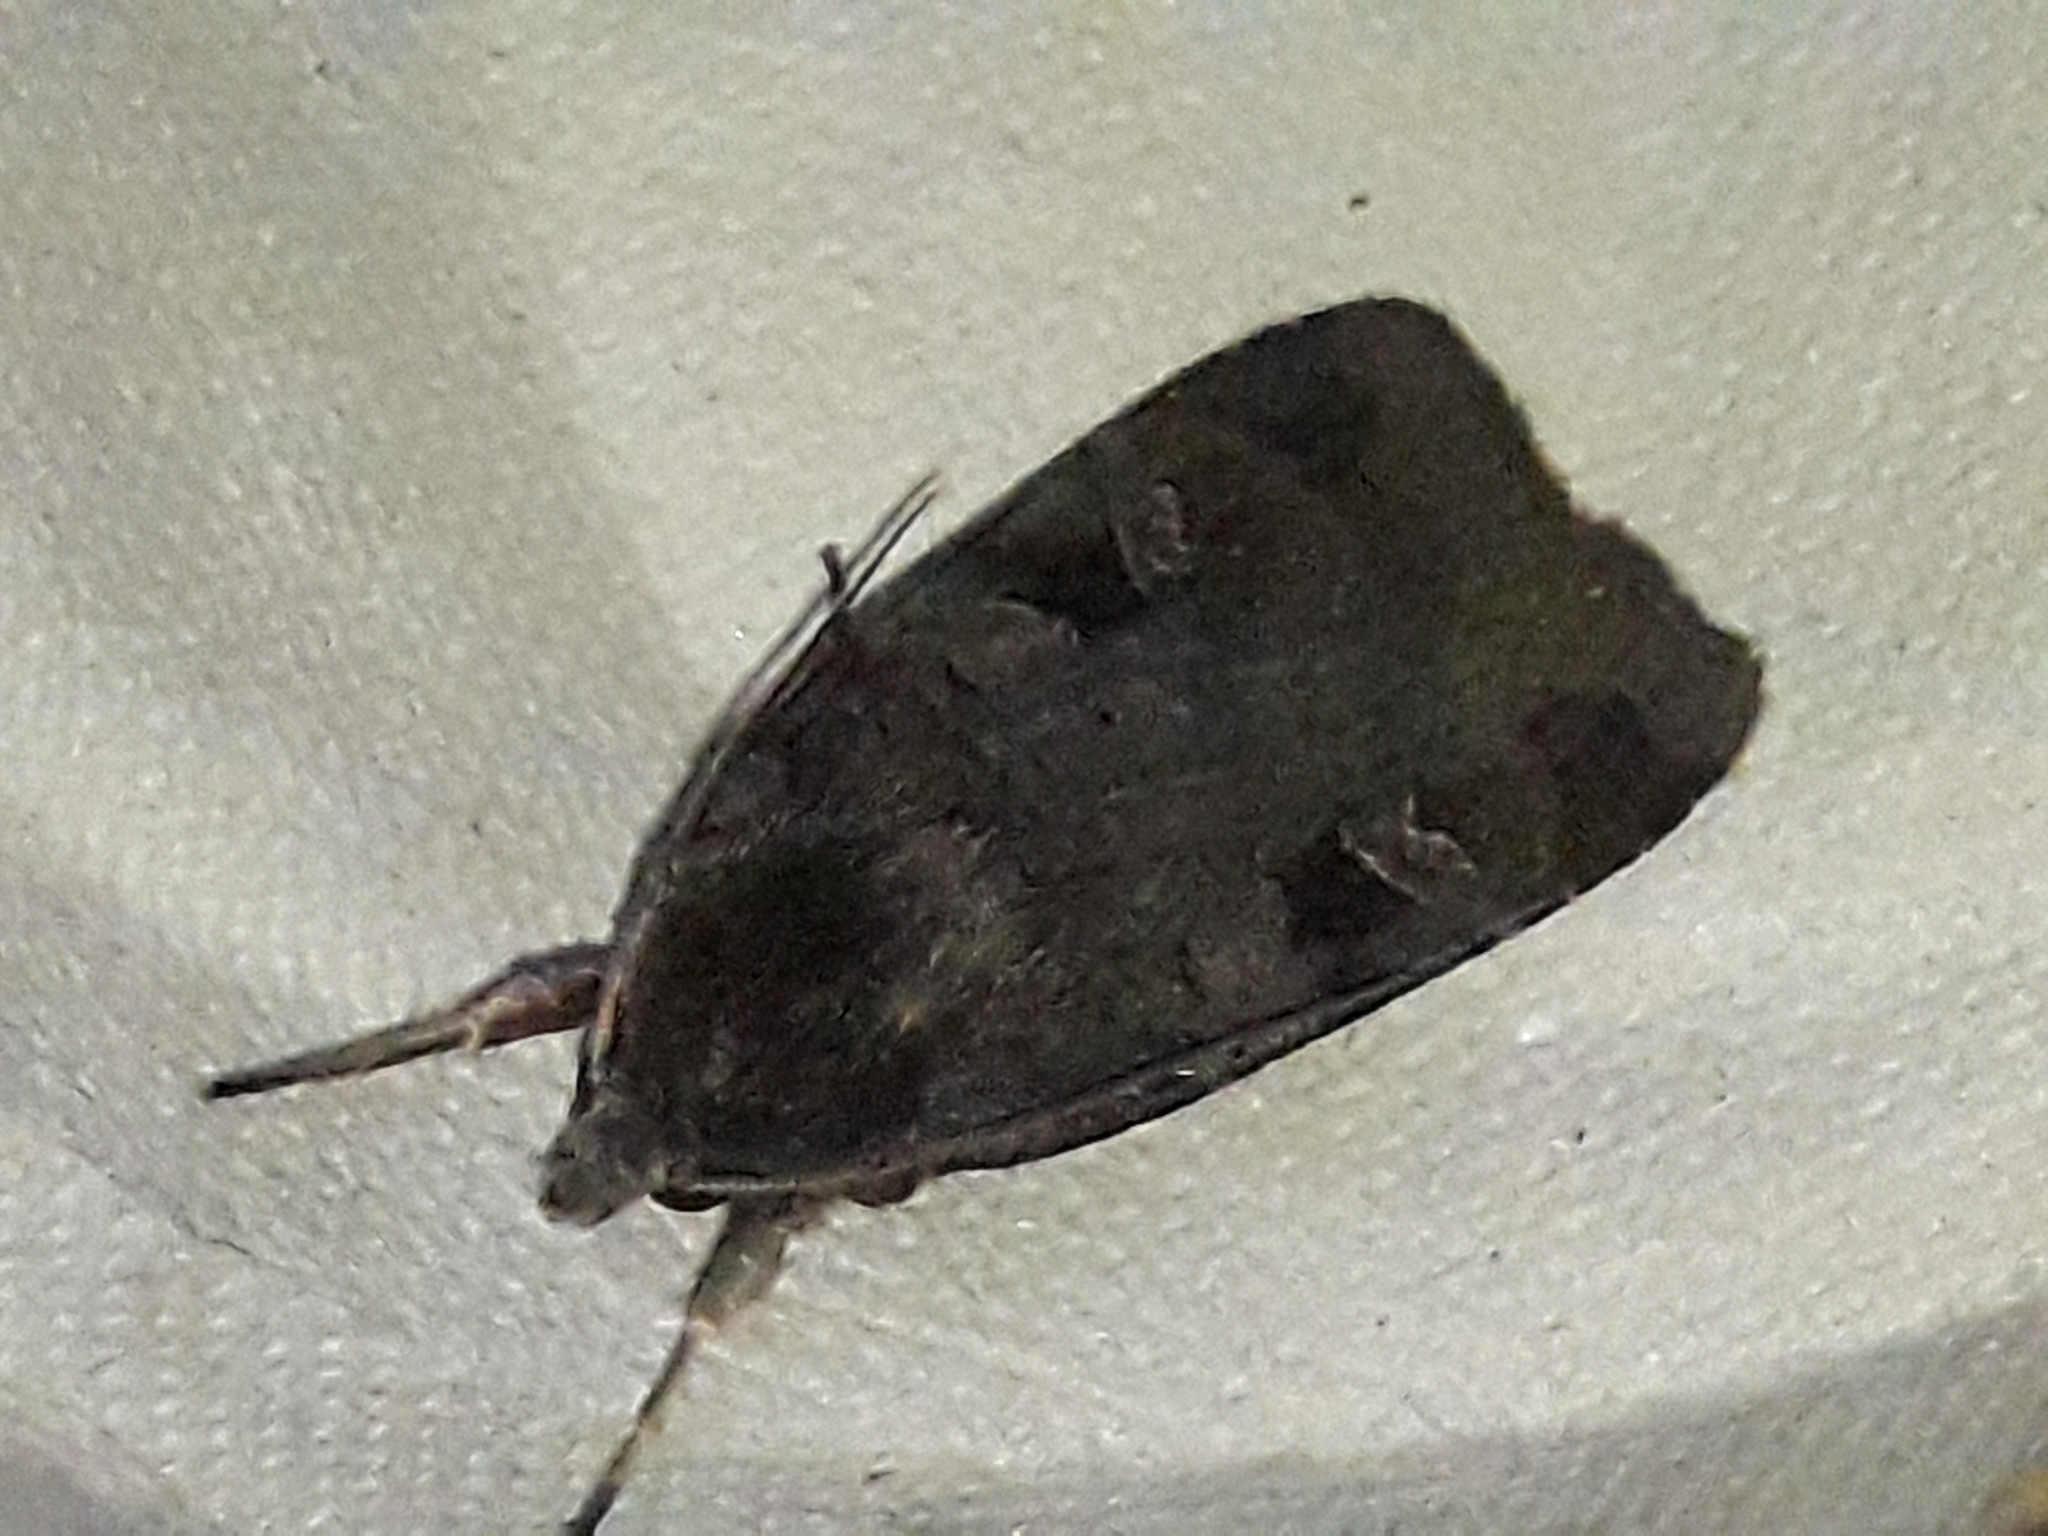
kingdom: Animalia
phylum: Arthropoda
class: Insecta
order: Lepidoptera
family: Noctuidae
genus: Diarsia
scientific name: Diarsia brunnea
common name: Purple clay
